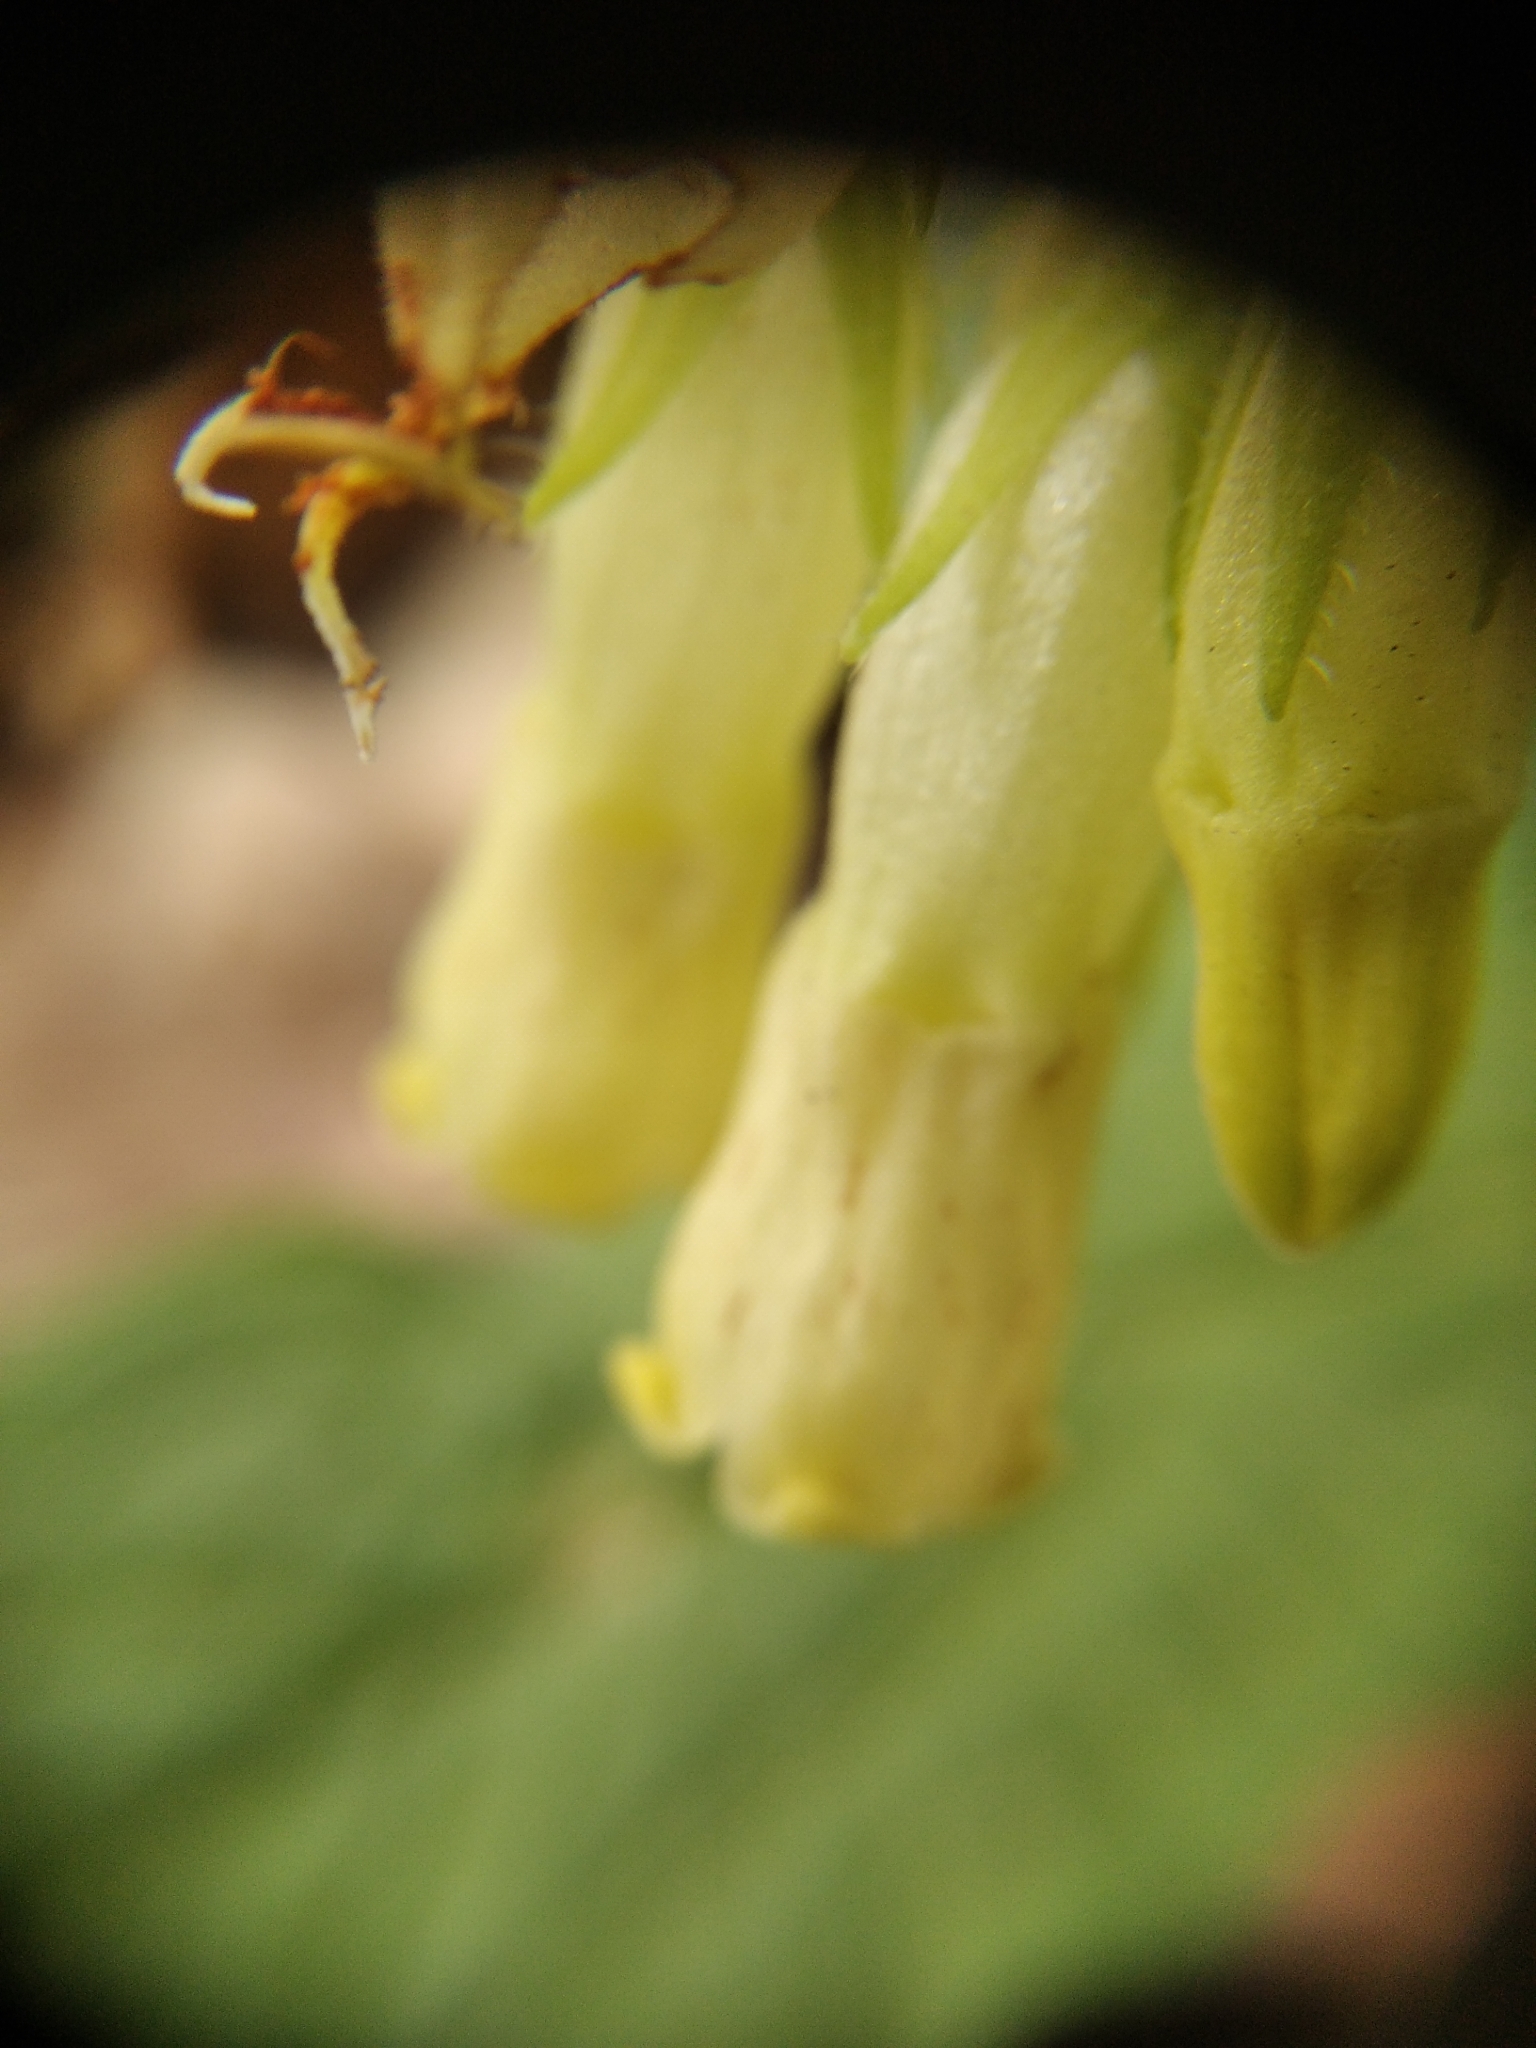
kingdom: Plantae
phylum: Tracheophyta
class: Magnoliopsida
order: Boraginales
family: Boraginaceae
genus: Symphytum
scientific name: Symphytum tuberosum
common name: Tuberous comfrey
